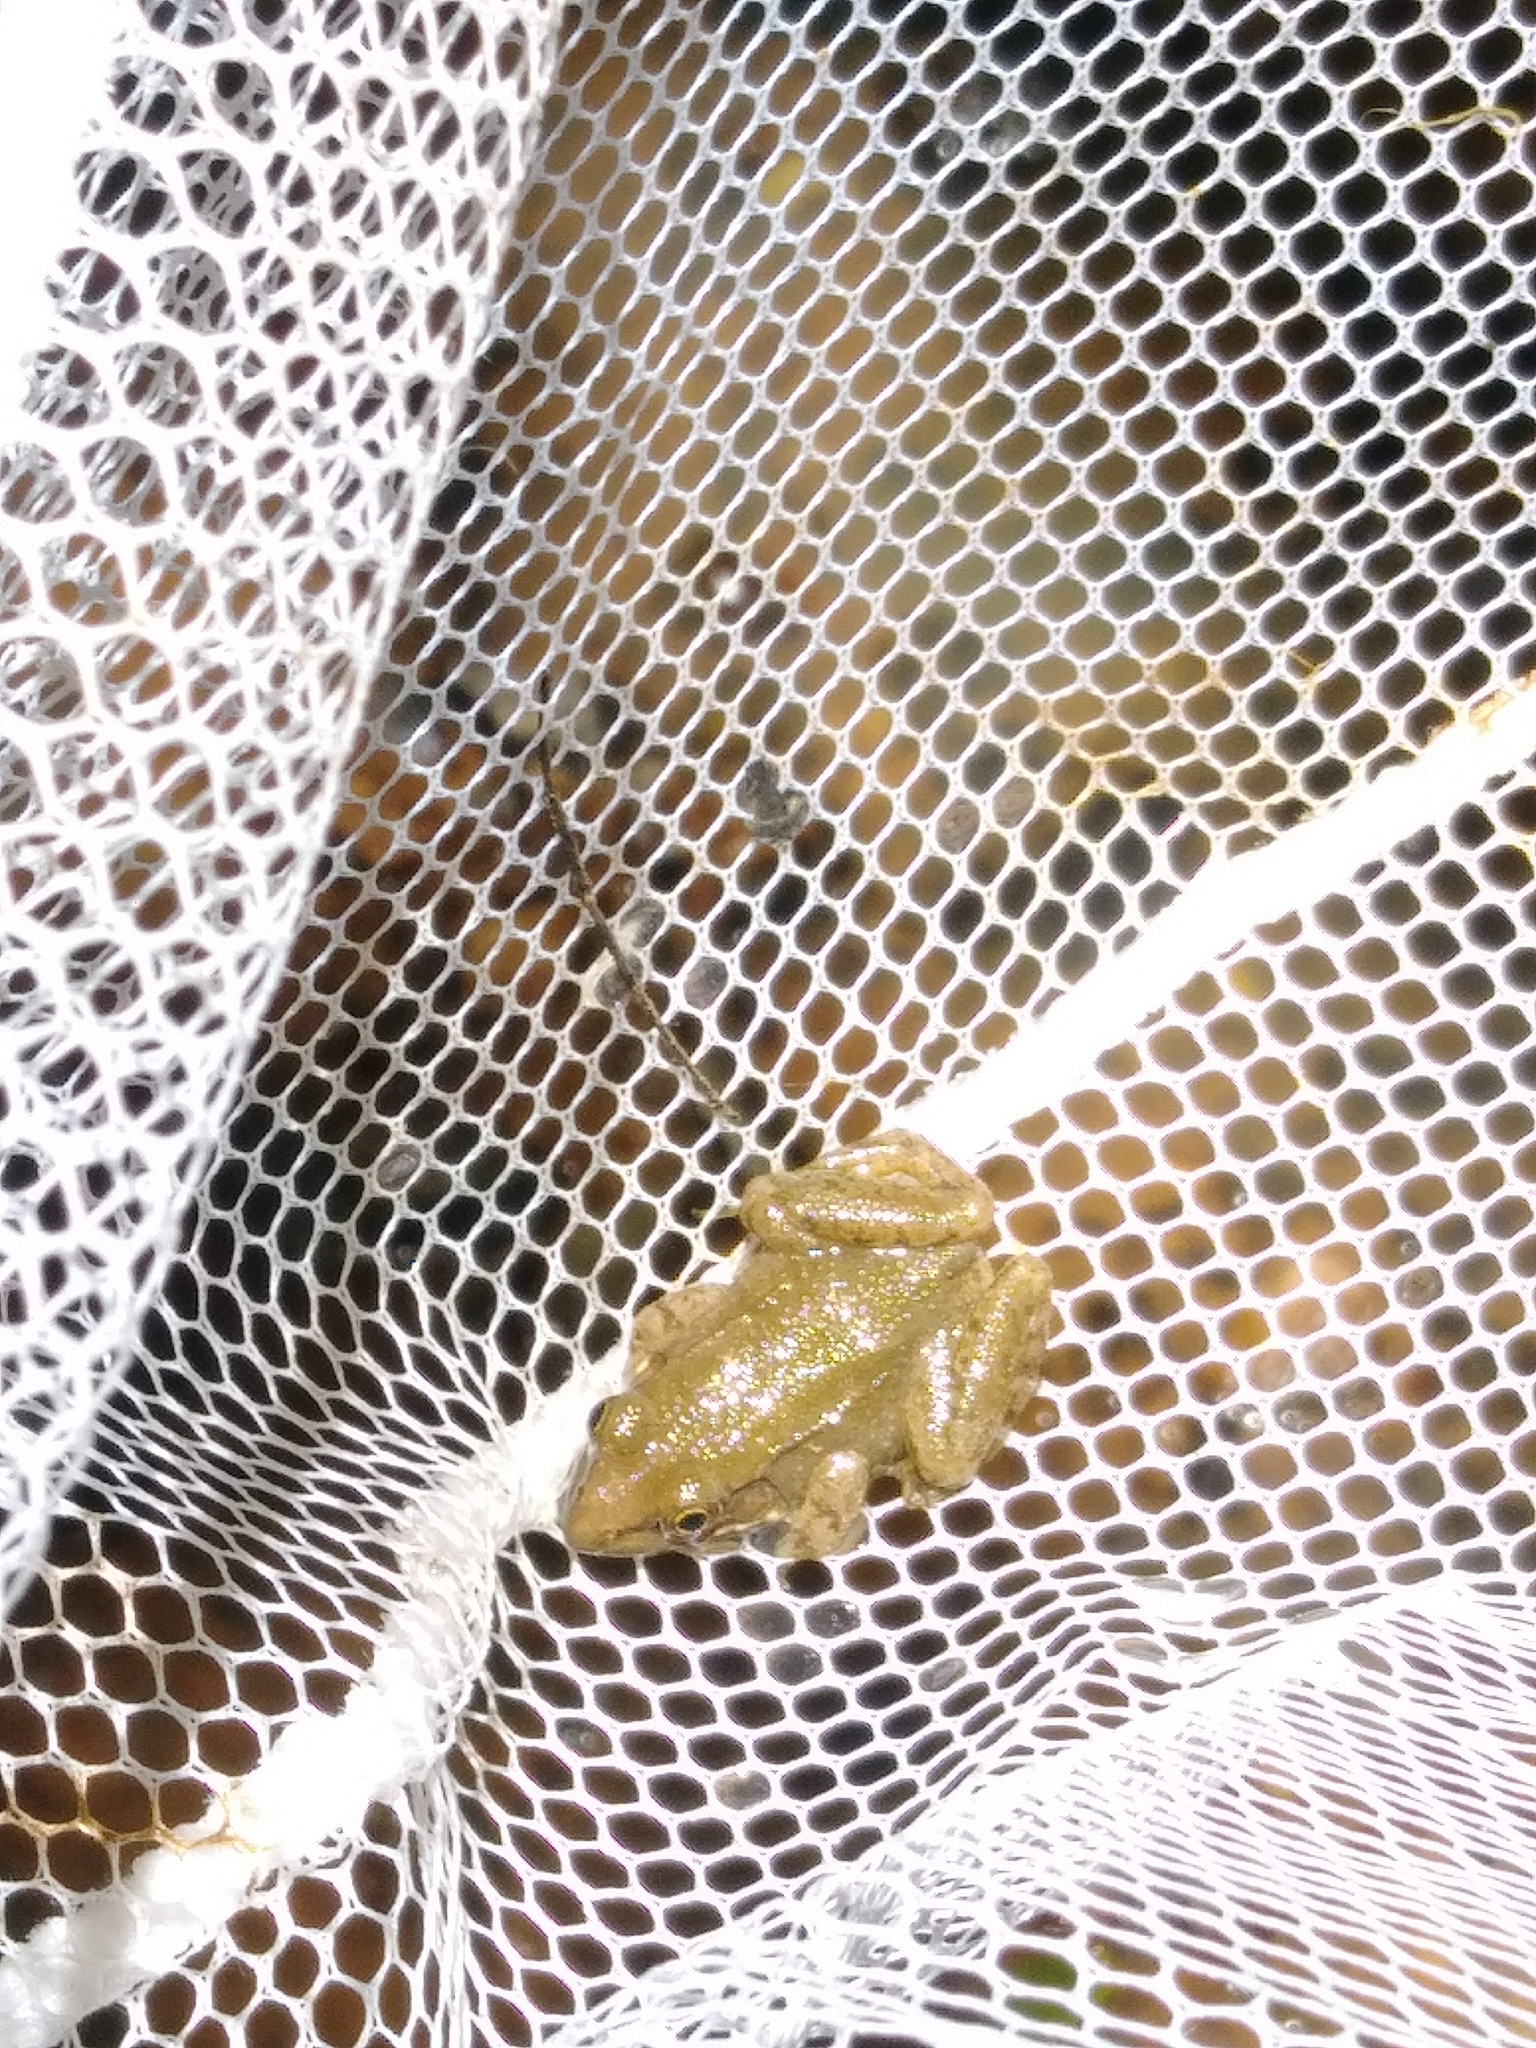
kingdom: Animalia
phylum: Chordata
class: Amphibia
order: Anura
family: Ranidae
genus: Lithobates
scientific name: Lithobates clamitans
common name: Green frog
